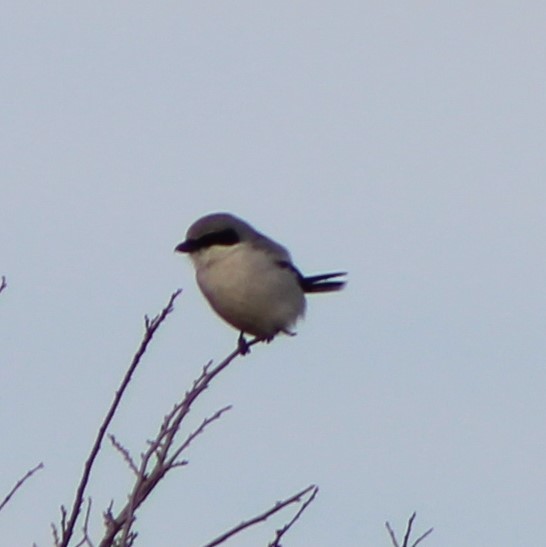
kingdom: Animalia
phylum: Chordata
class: Aves
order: Passeriformes
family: Laniidae
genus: Lanius
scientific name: Lanius ludovicianus
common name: Loggerhead shrike
